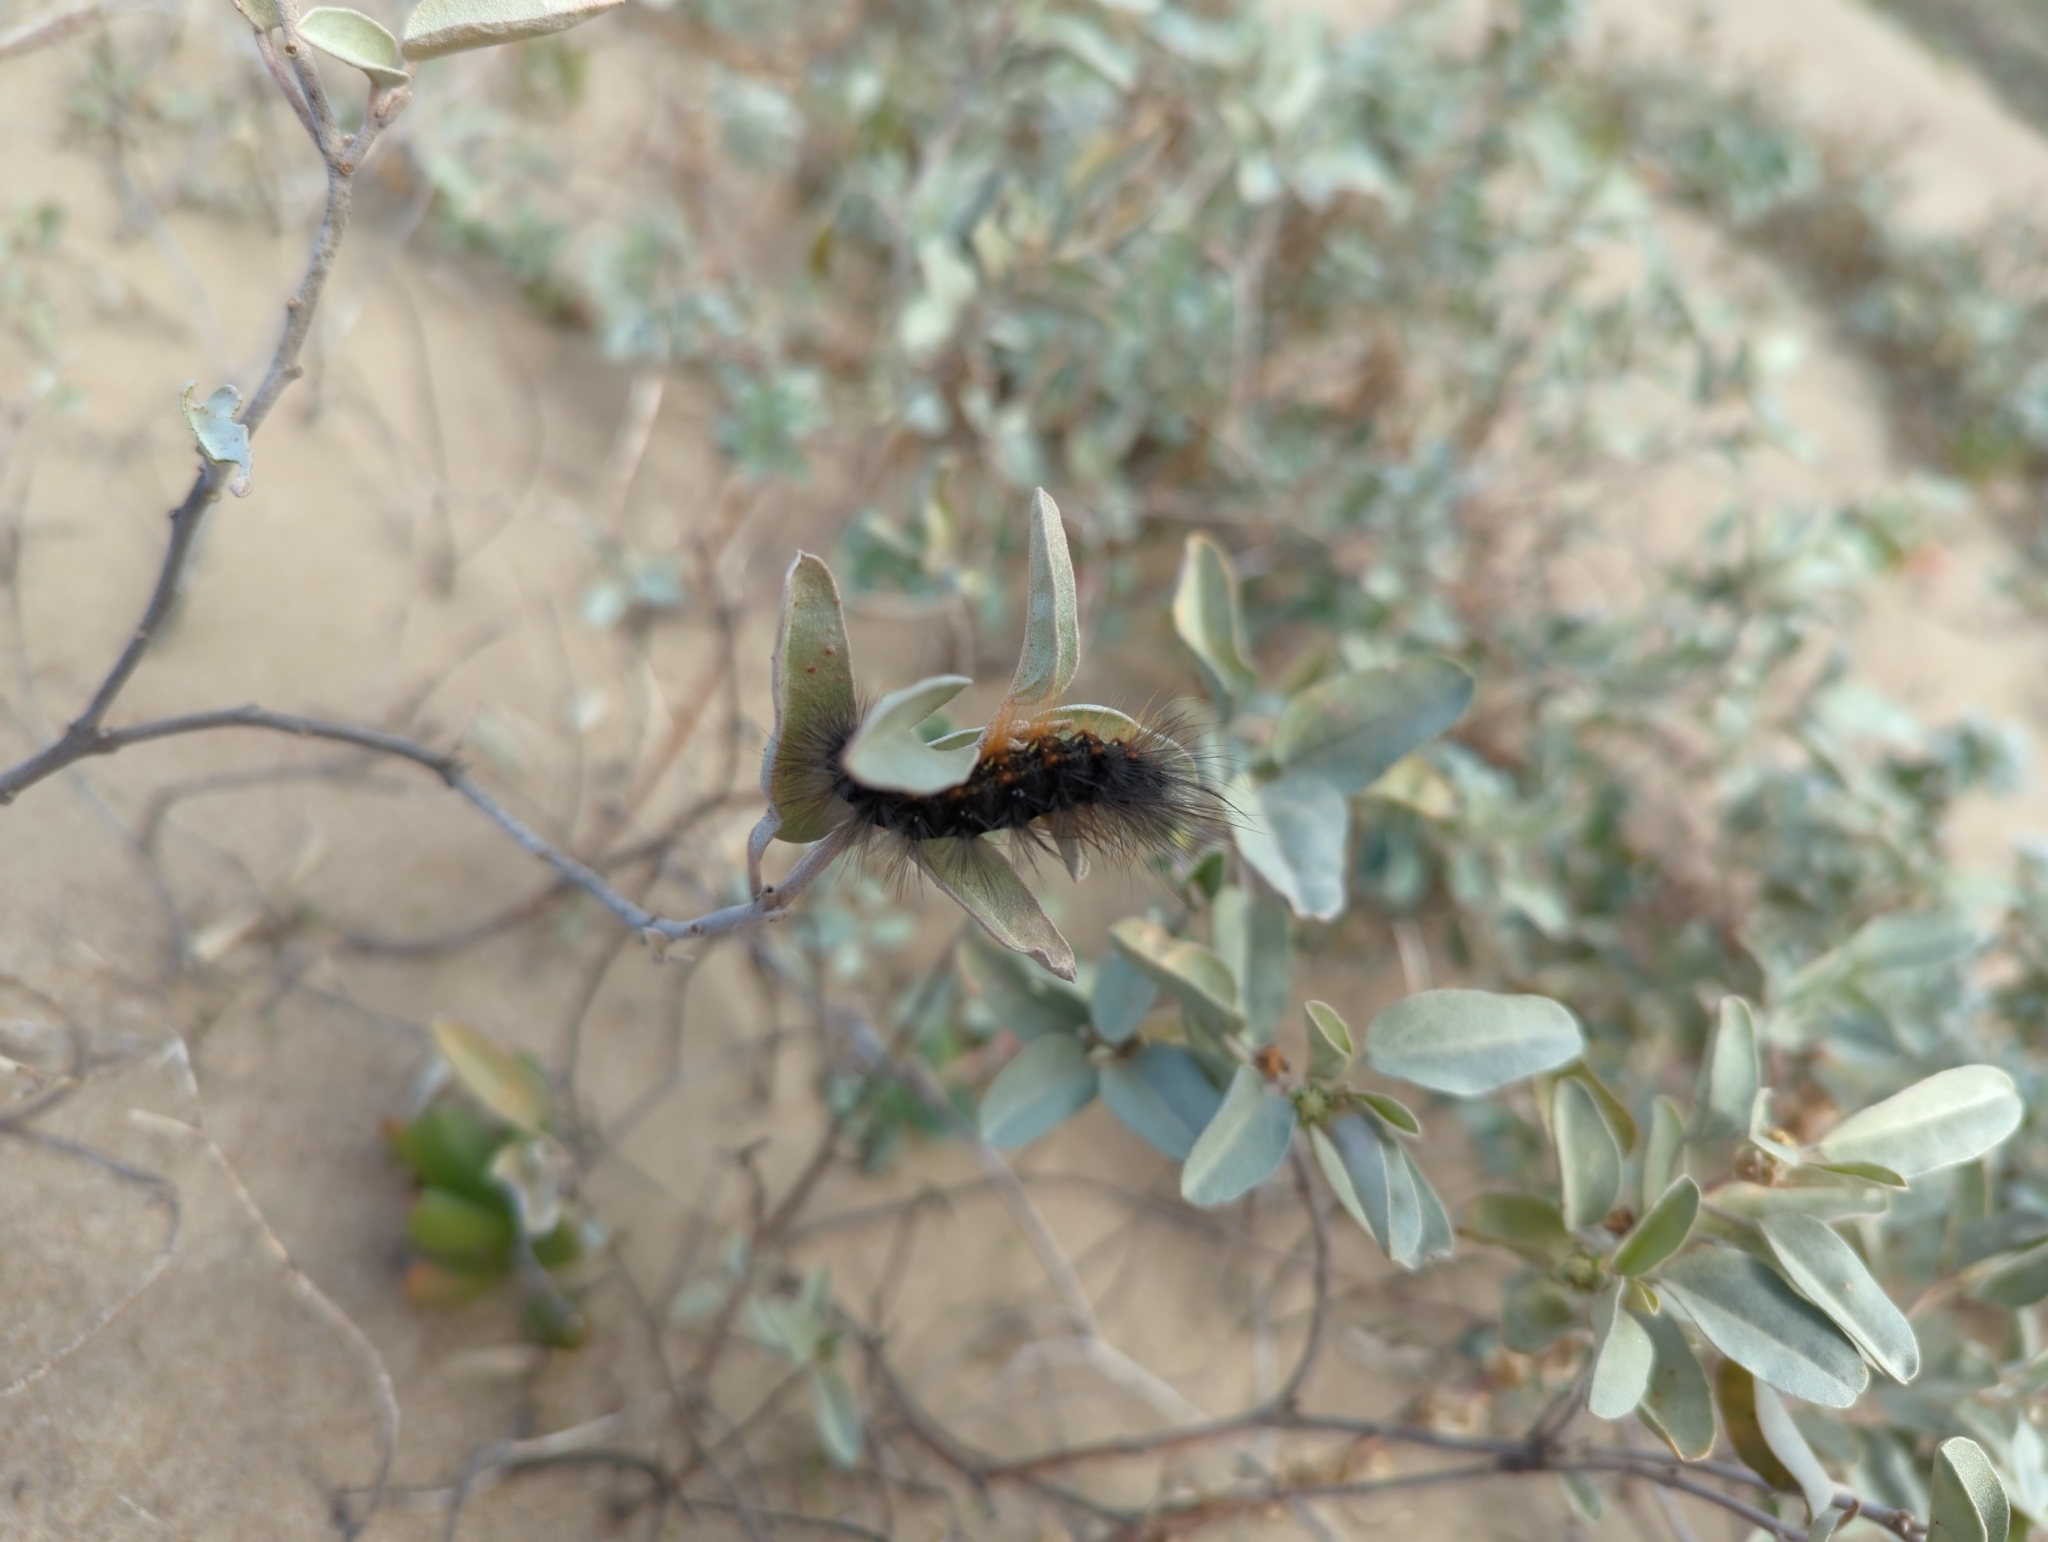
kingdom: Animalia
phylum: Arthropoda
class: Insecta
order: Lepidoptera
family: Erebidae
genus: Estigmene
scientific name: Estigmene acrea
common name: Salt marsh moth
